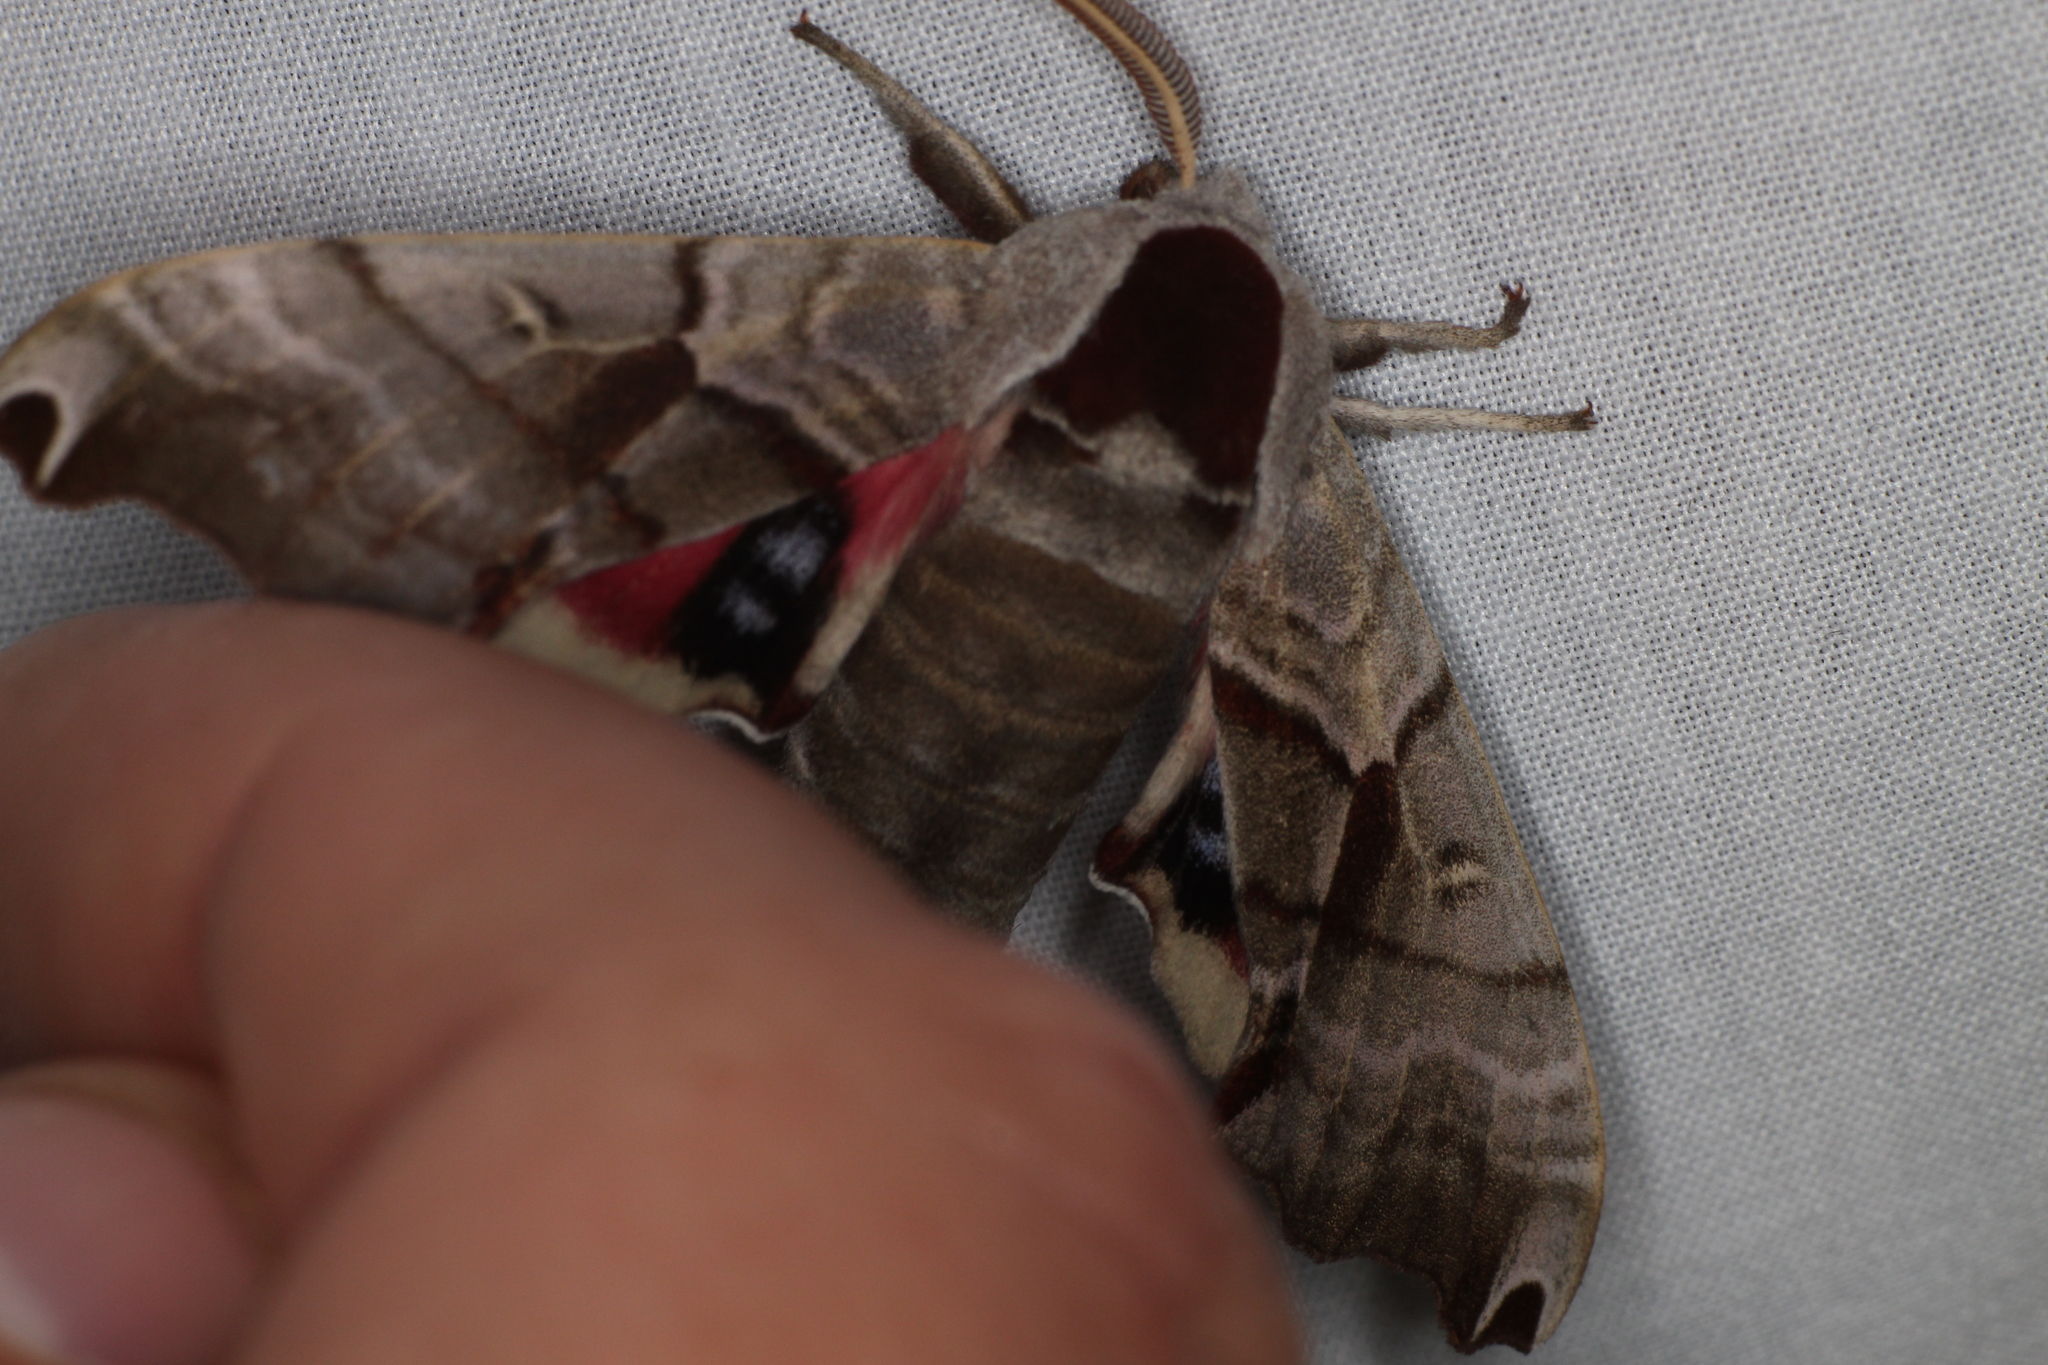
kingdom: Animalia
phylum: Arthropoda
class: Insecta
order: Lepidoptera
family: Sphingidae
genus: Smerinthus
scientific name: Smerinthus jamaicensis
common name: Twin spotted sphinx
